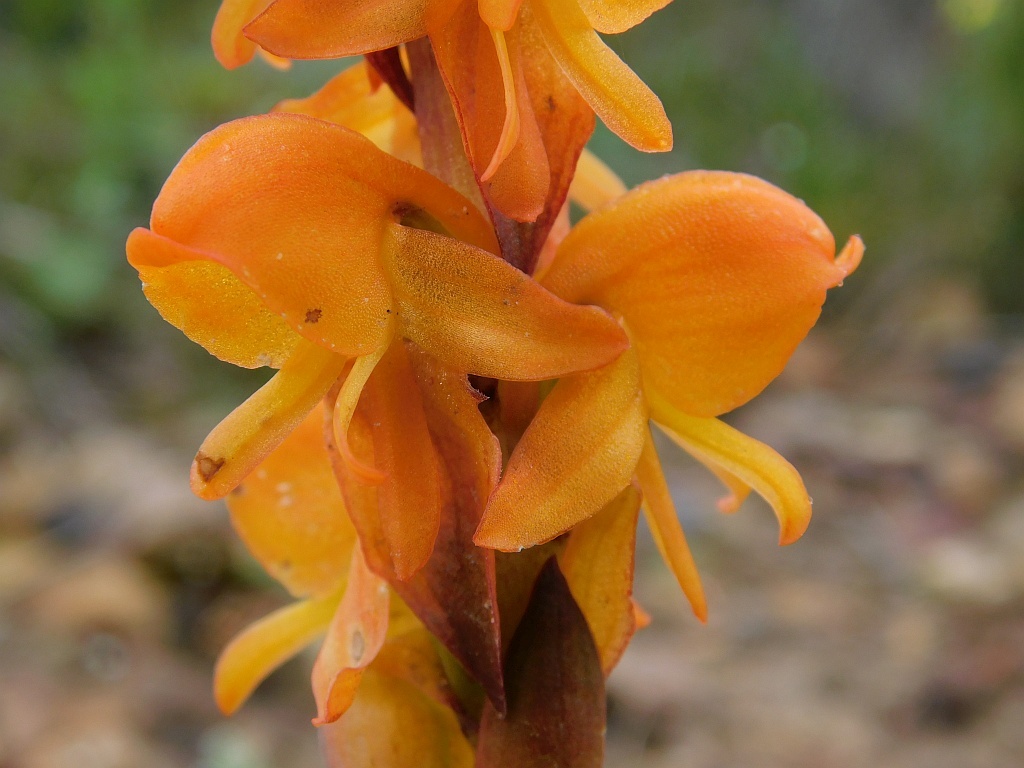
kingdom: Plantae
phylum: Tracheophyta
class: Liliopsida
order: Asparagales
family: Orchidaceae
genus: Satyrium
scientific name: Satyrium coriifolium
